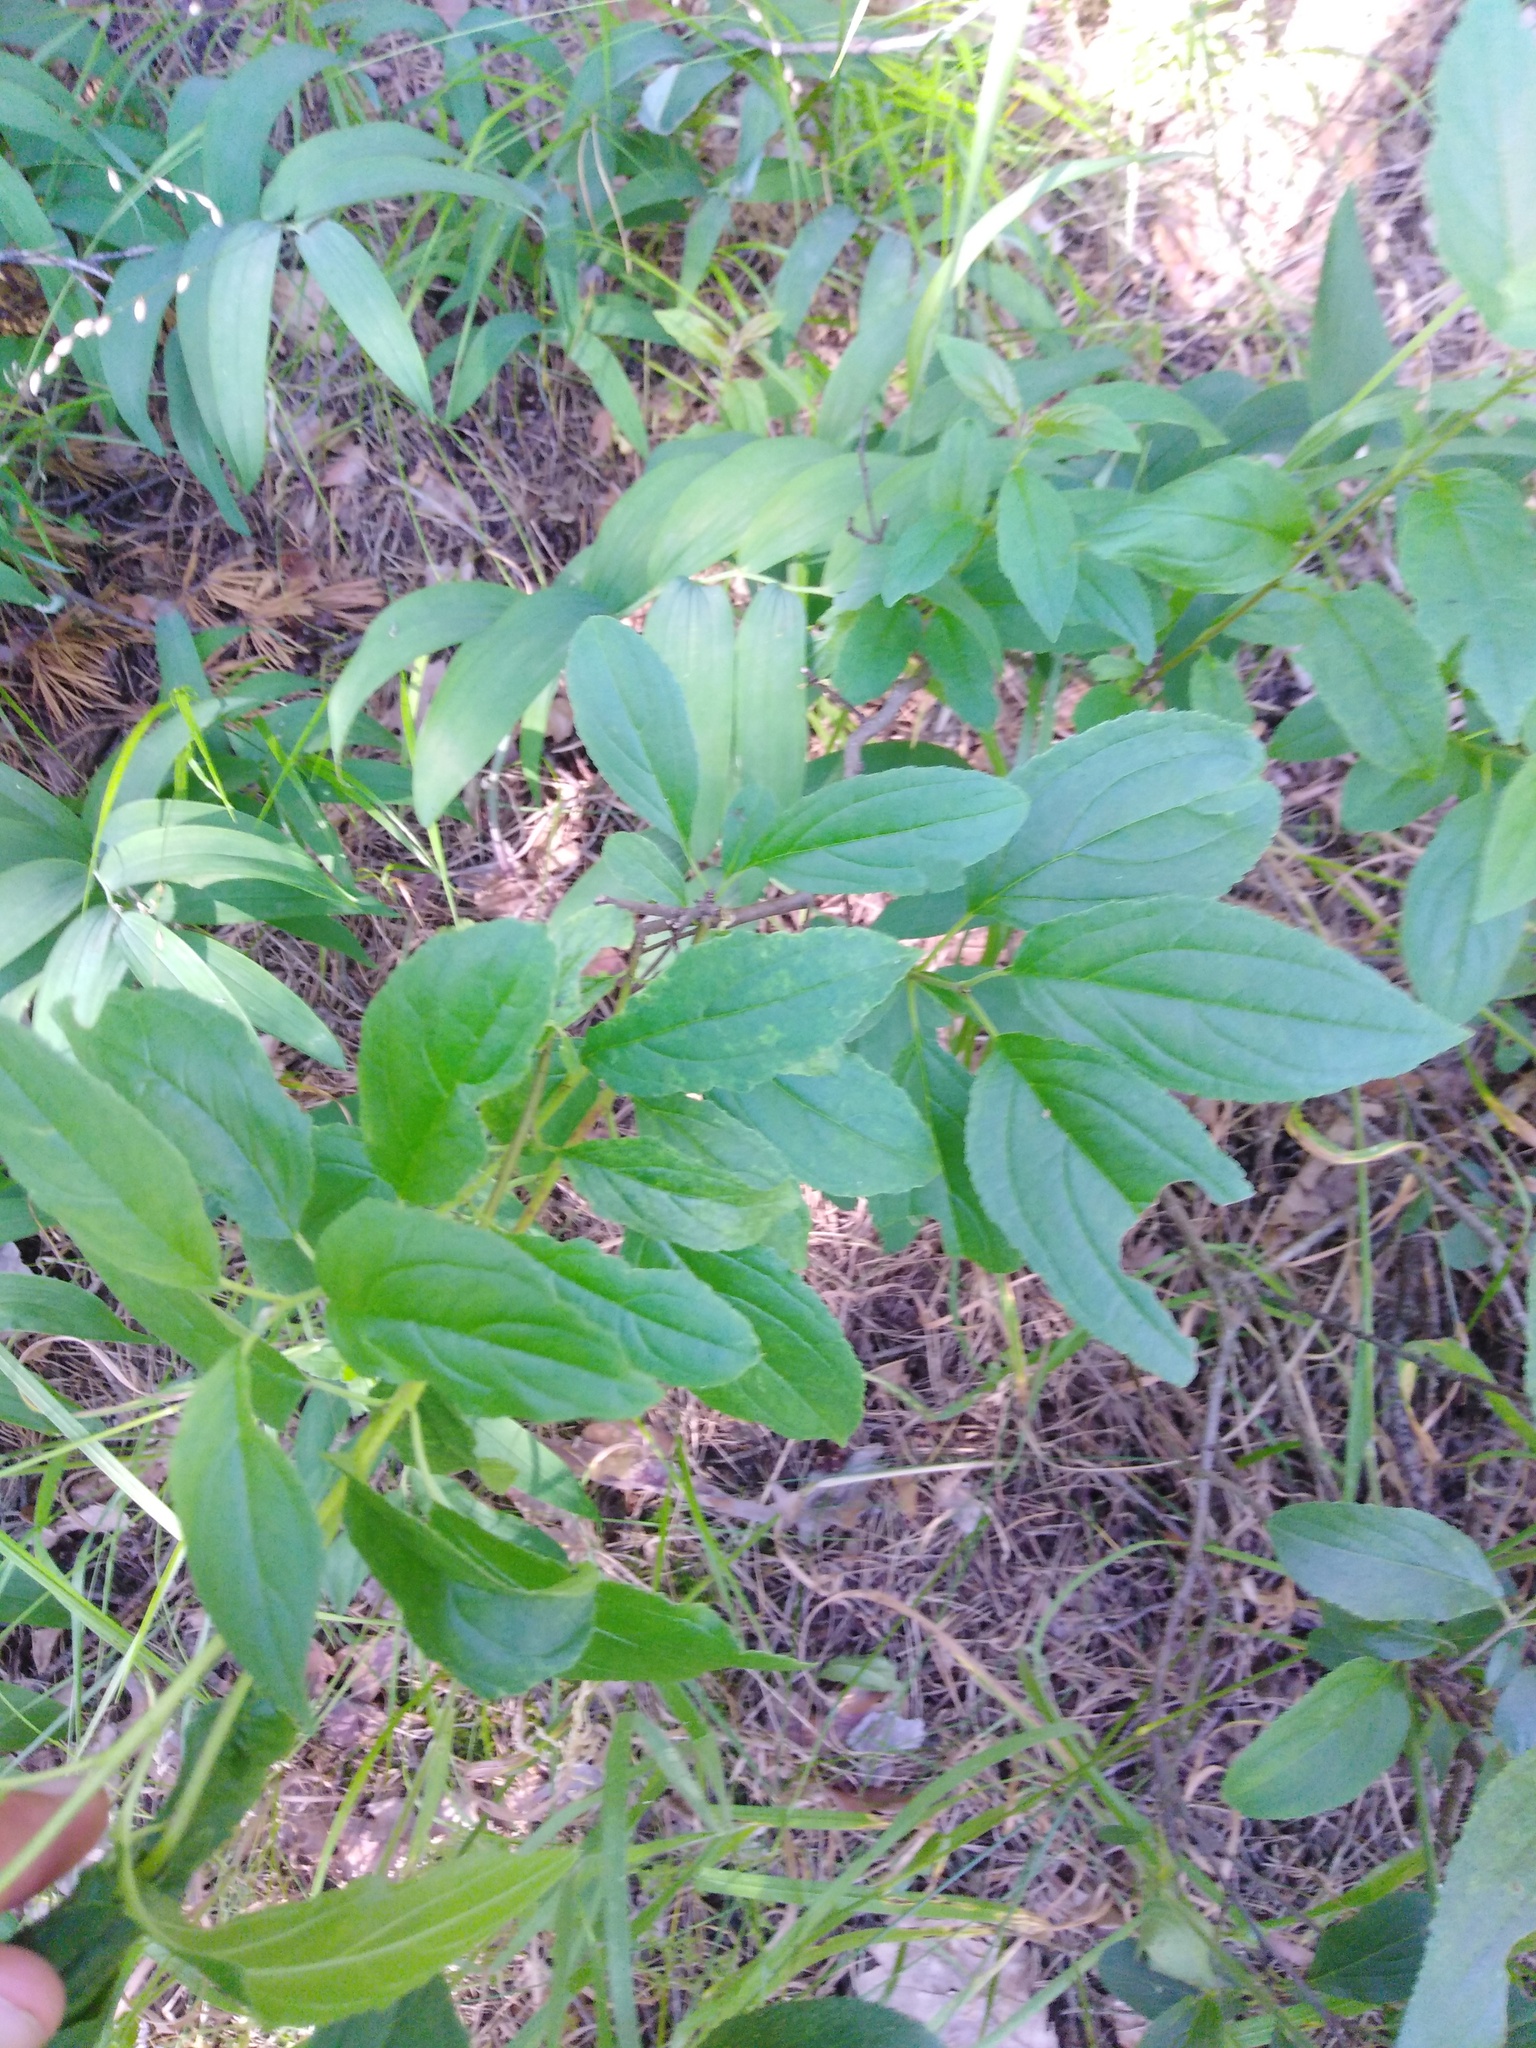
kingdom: Plantae
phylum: Tracheophyta
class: Magnoliopsida
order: Rosales
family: Rhamnaceae
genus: Rhamnus
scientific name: Rhamnus cathartica
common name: Common buckthorn
